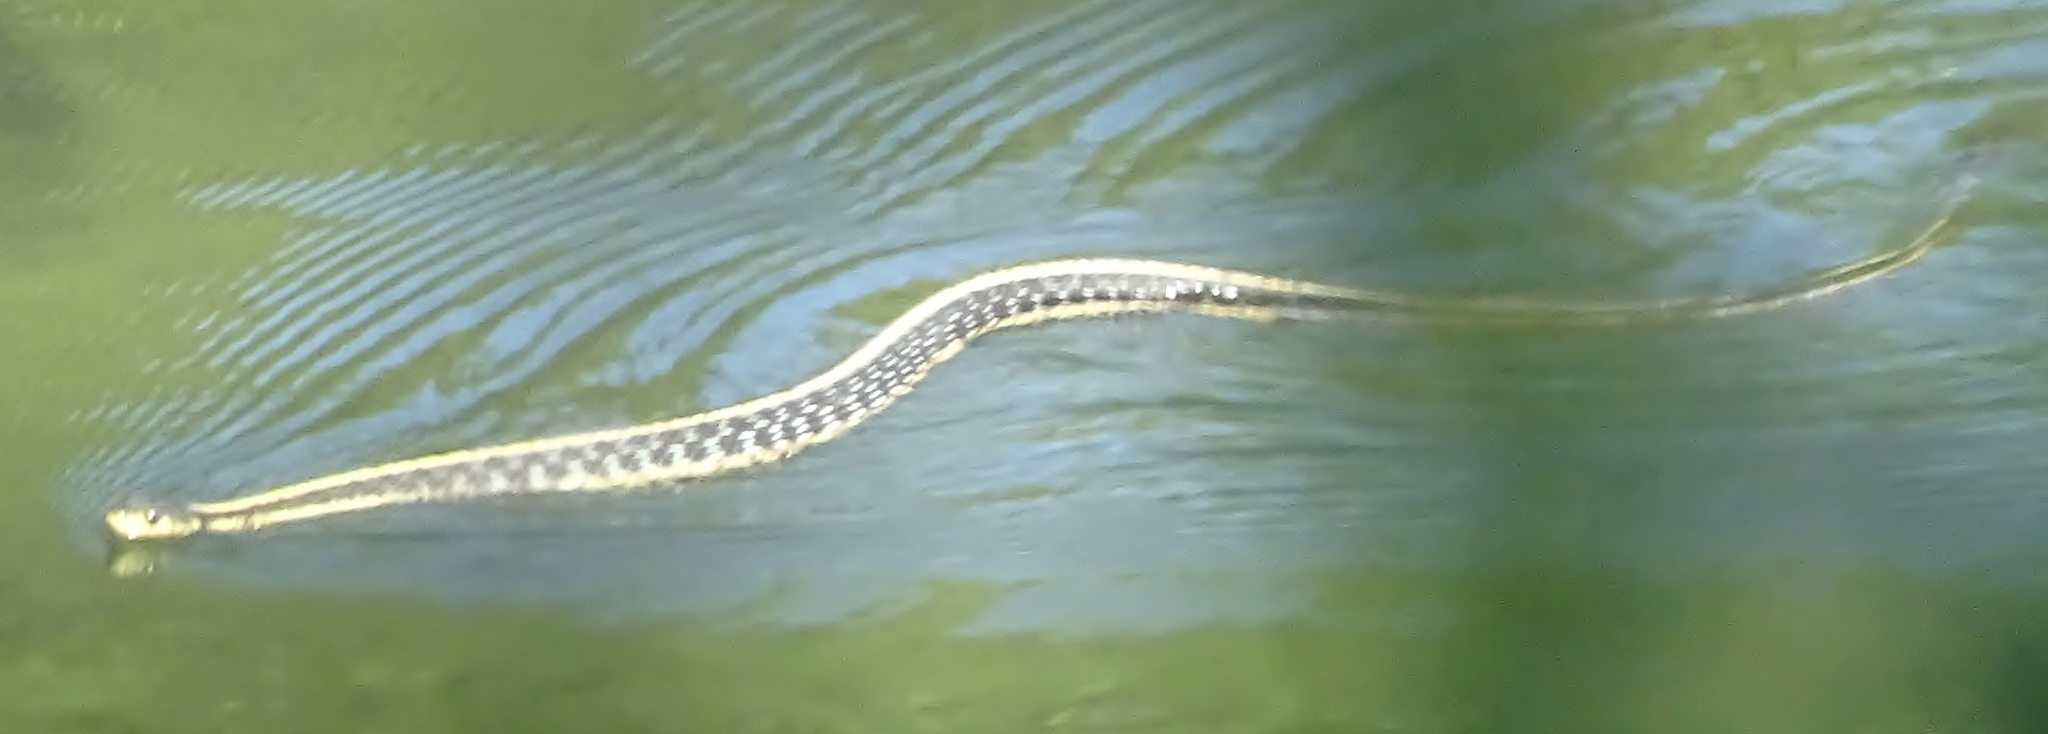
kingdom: Animalia
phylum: Chordata
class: Squamata
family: Colubridae
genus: Thamnophis
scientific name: Thamnophis sirtalis
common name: Common garter snake
